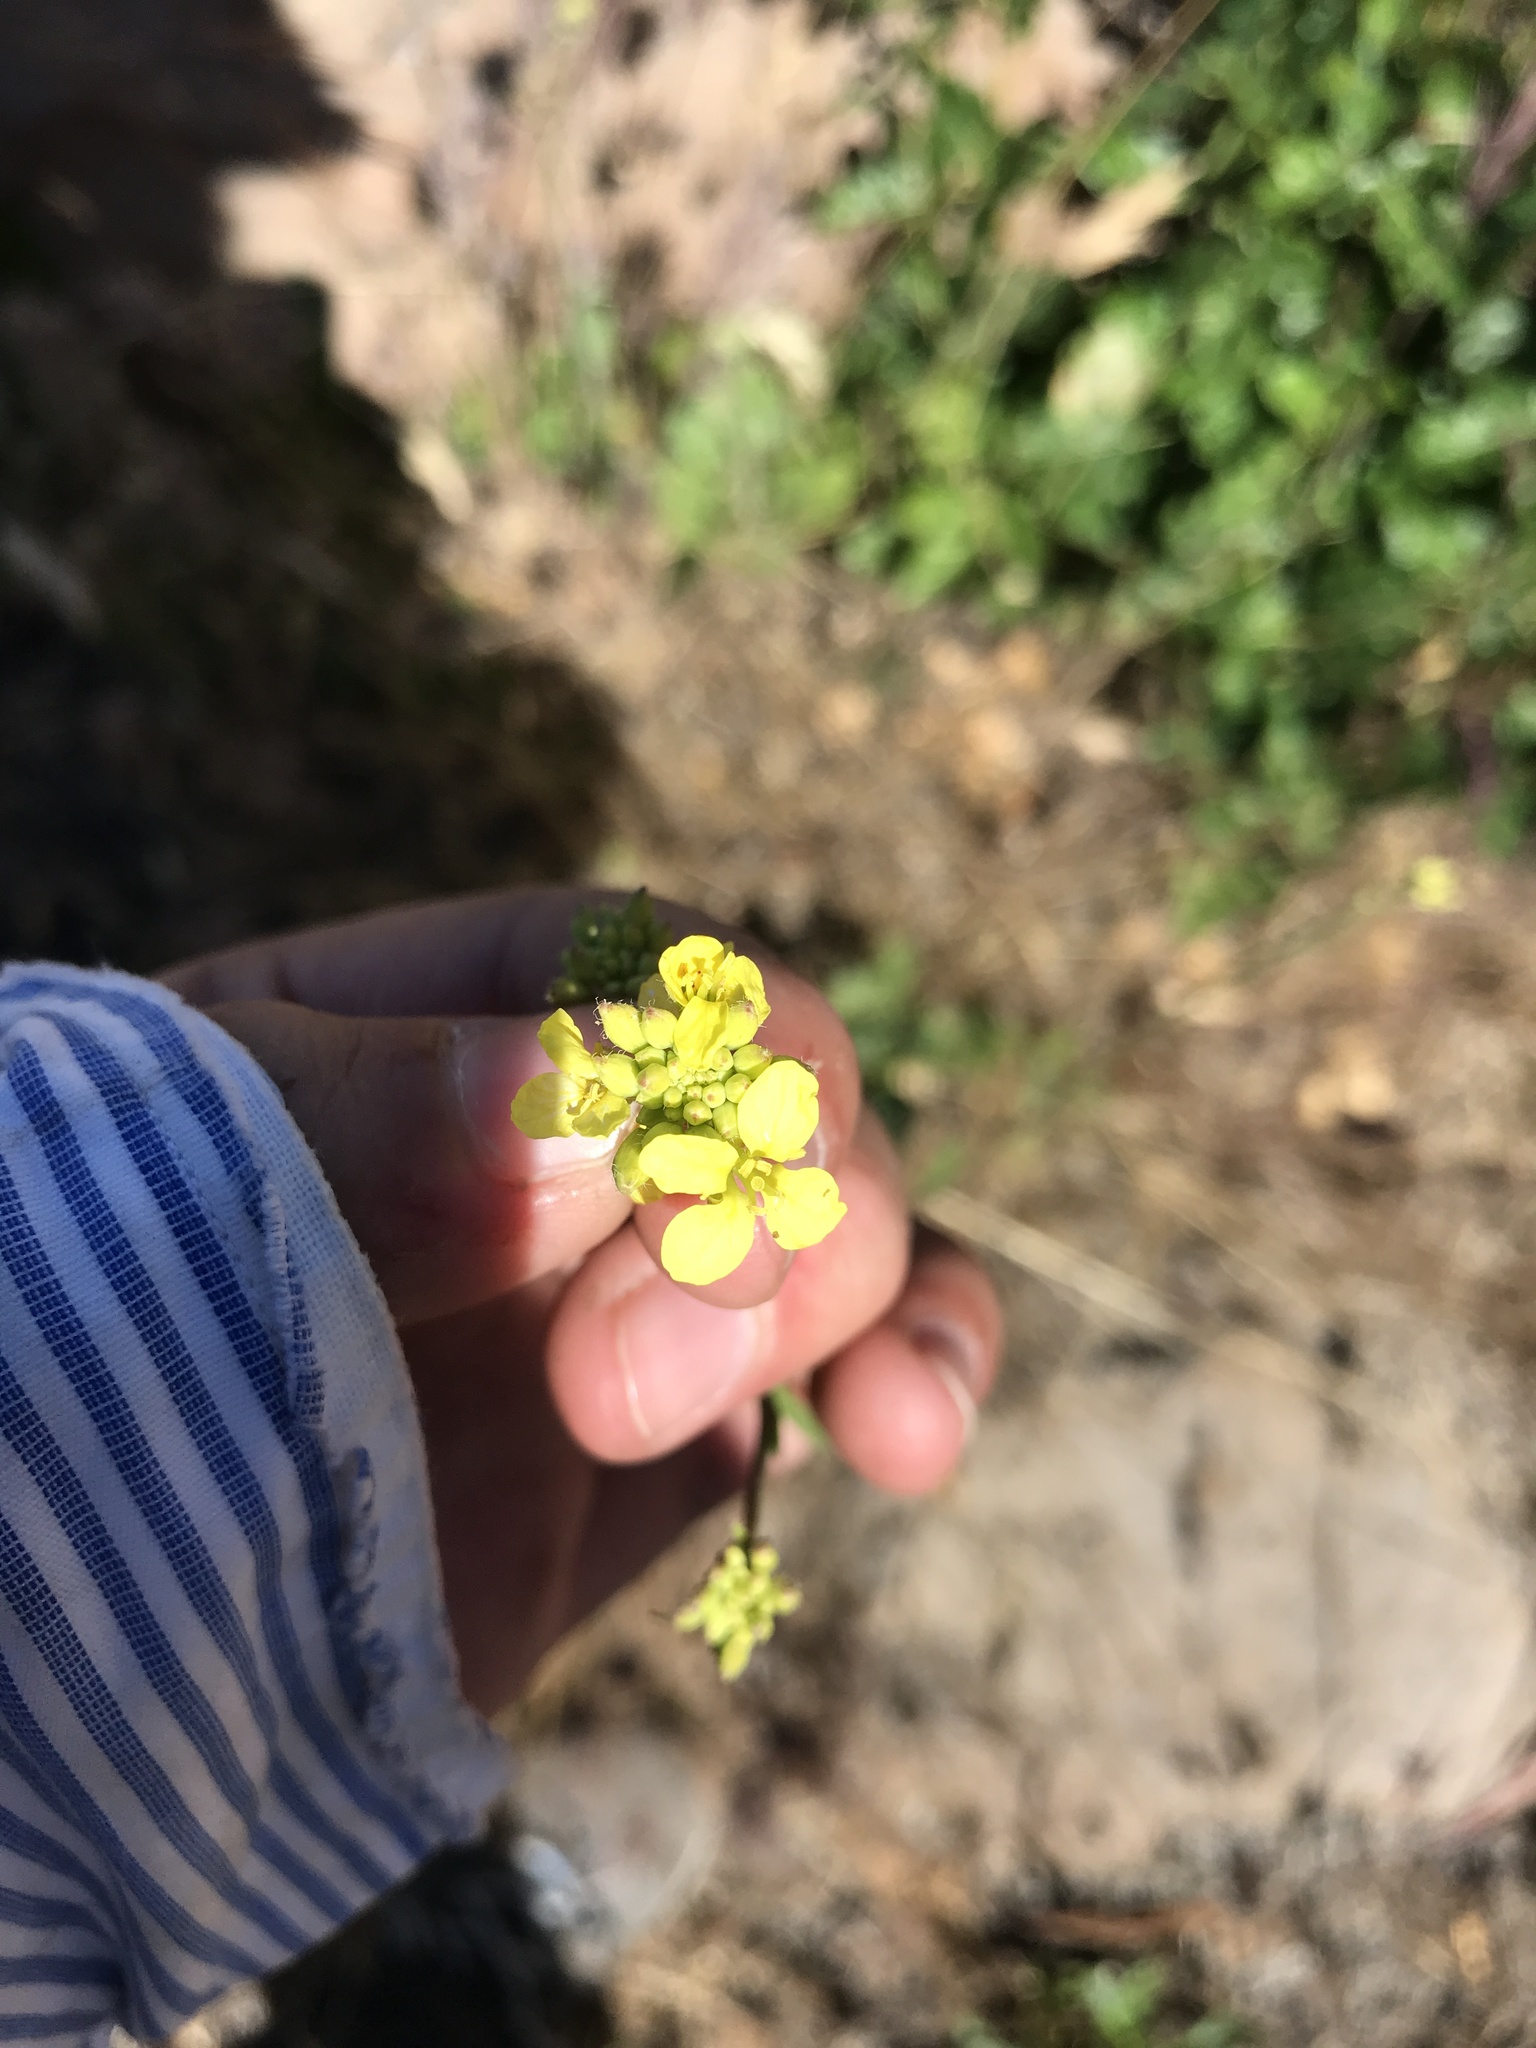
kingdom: Plantae
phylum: Tracheophyta
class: Magnoliopsida
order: Brassicales
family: Brassicaceae
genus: Hirschfeldia
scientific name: Hirschfeldia incana
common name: Hoary mustard
